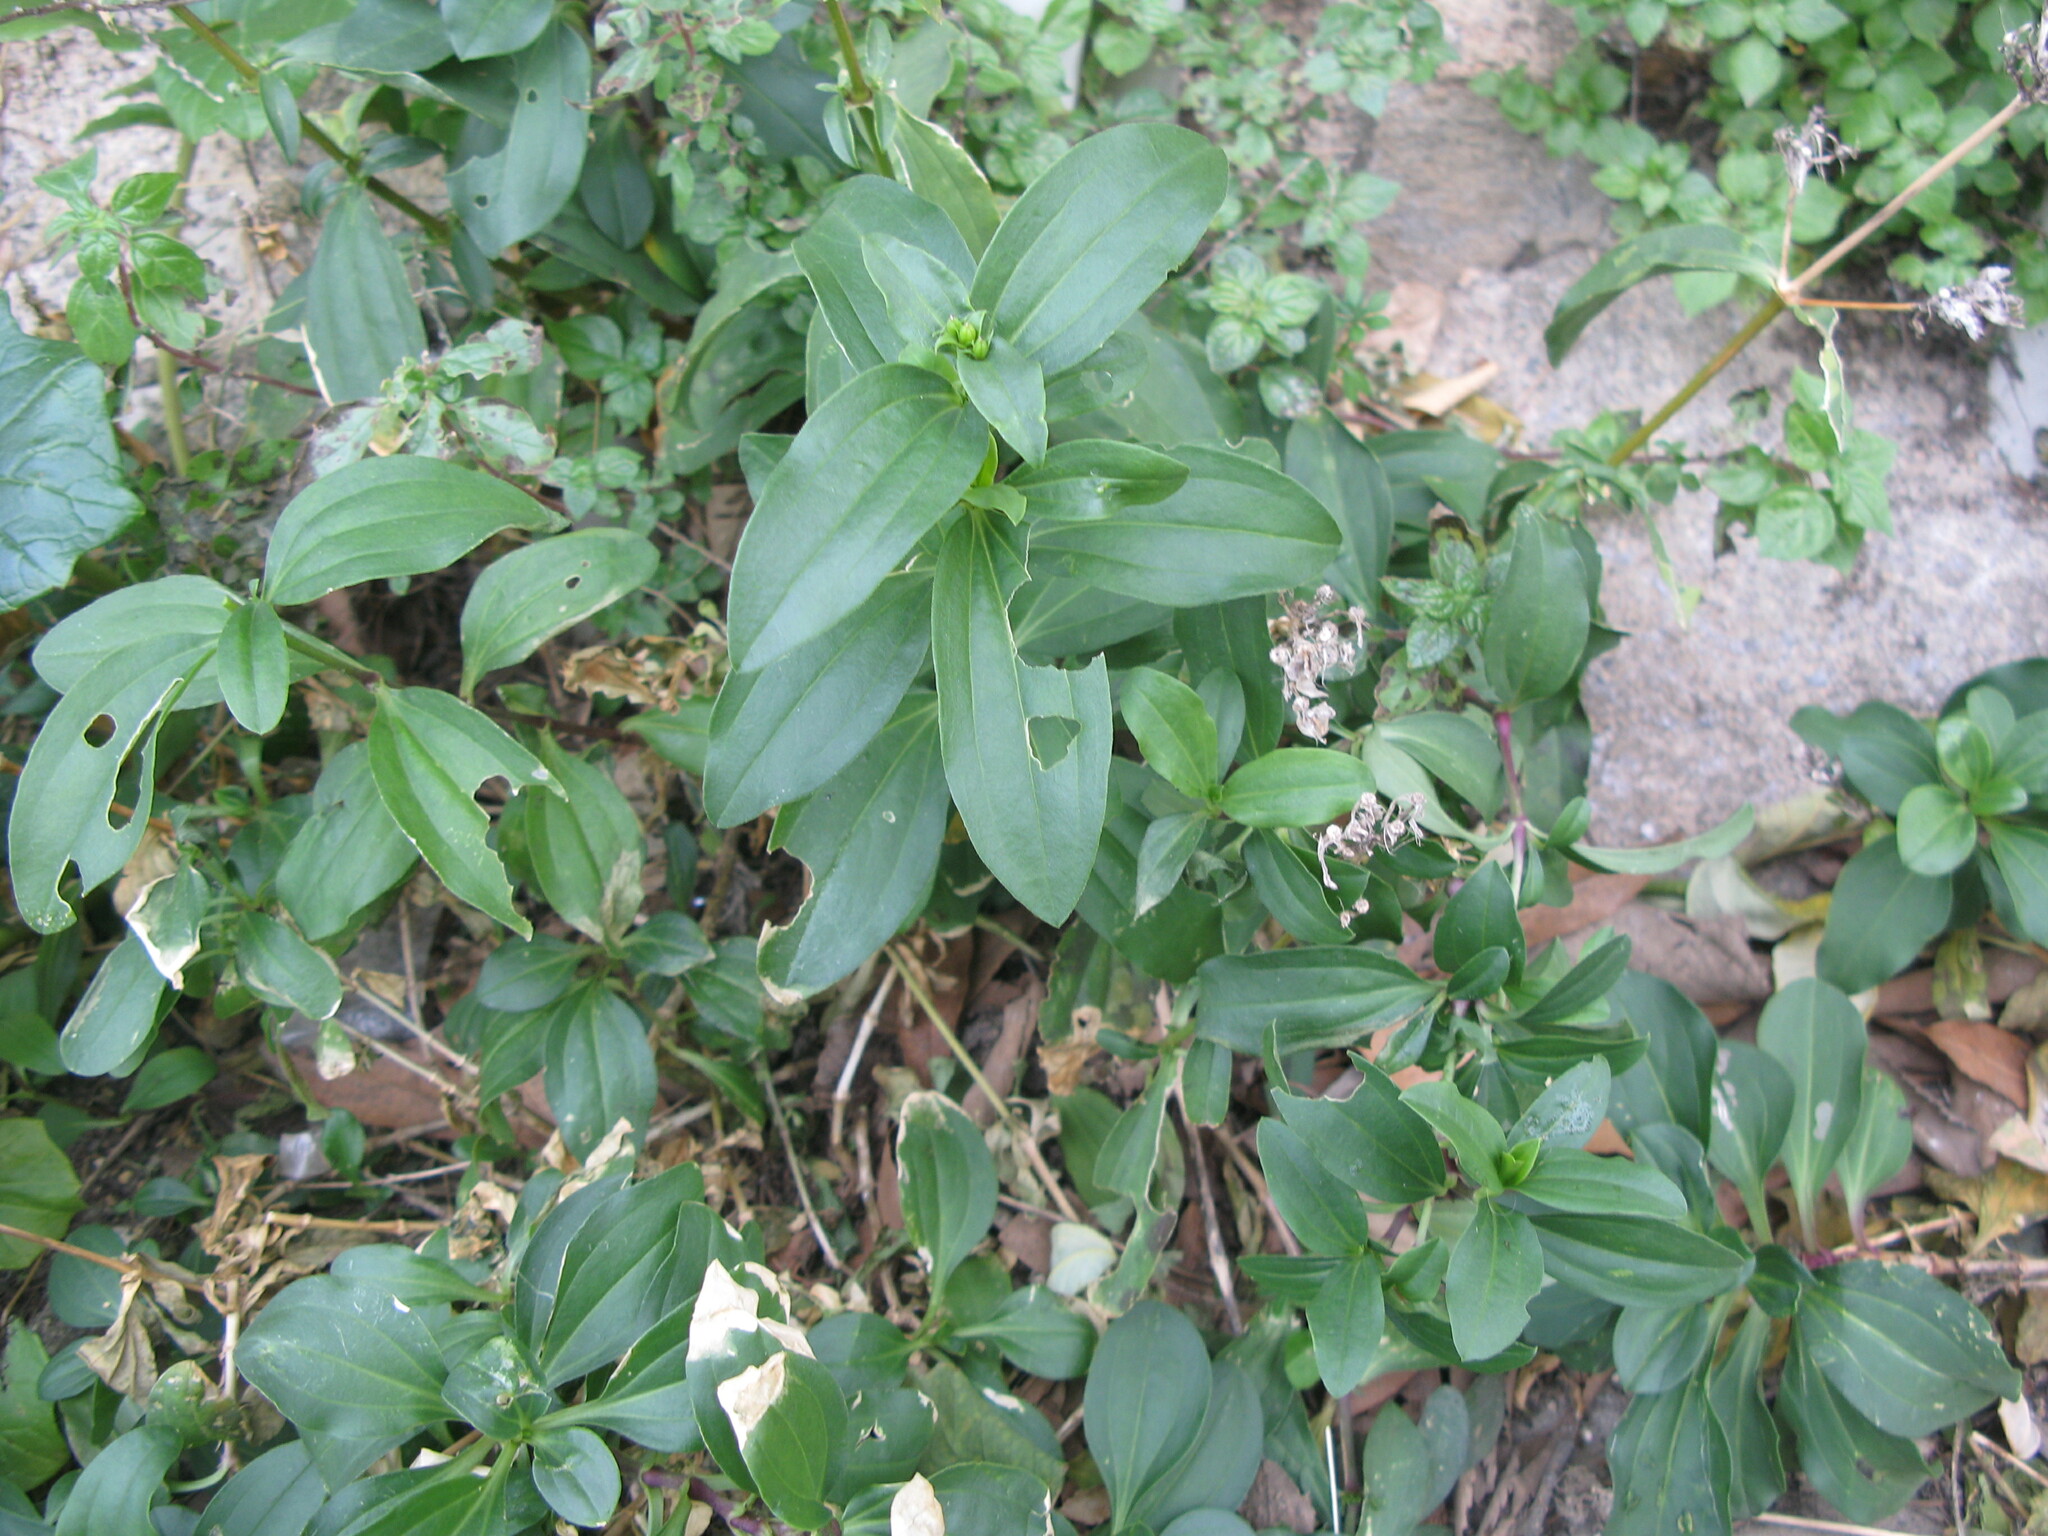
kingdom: Plantae
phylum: Tracheophyta
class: Magnoliopsida
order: Dipsacales
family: Caprifoliaceae
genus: Centranthus
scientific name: Centranthus ruber
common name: Red valerian
